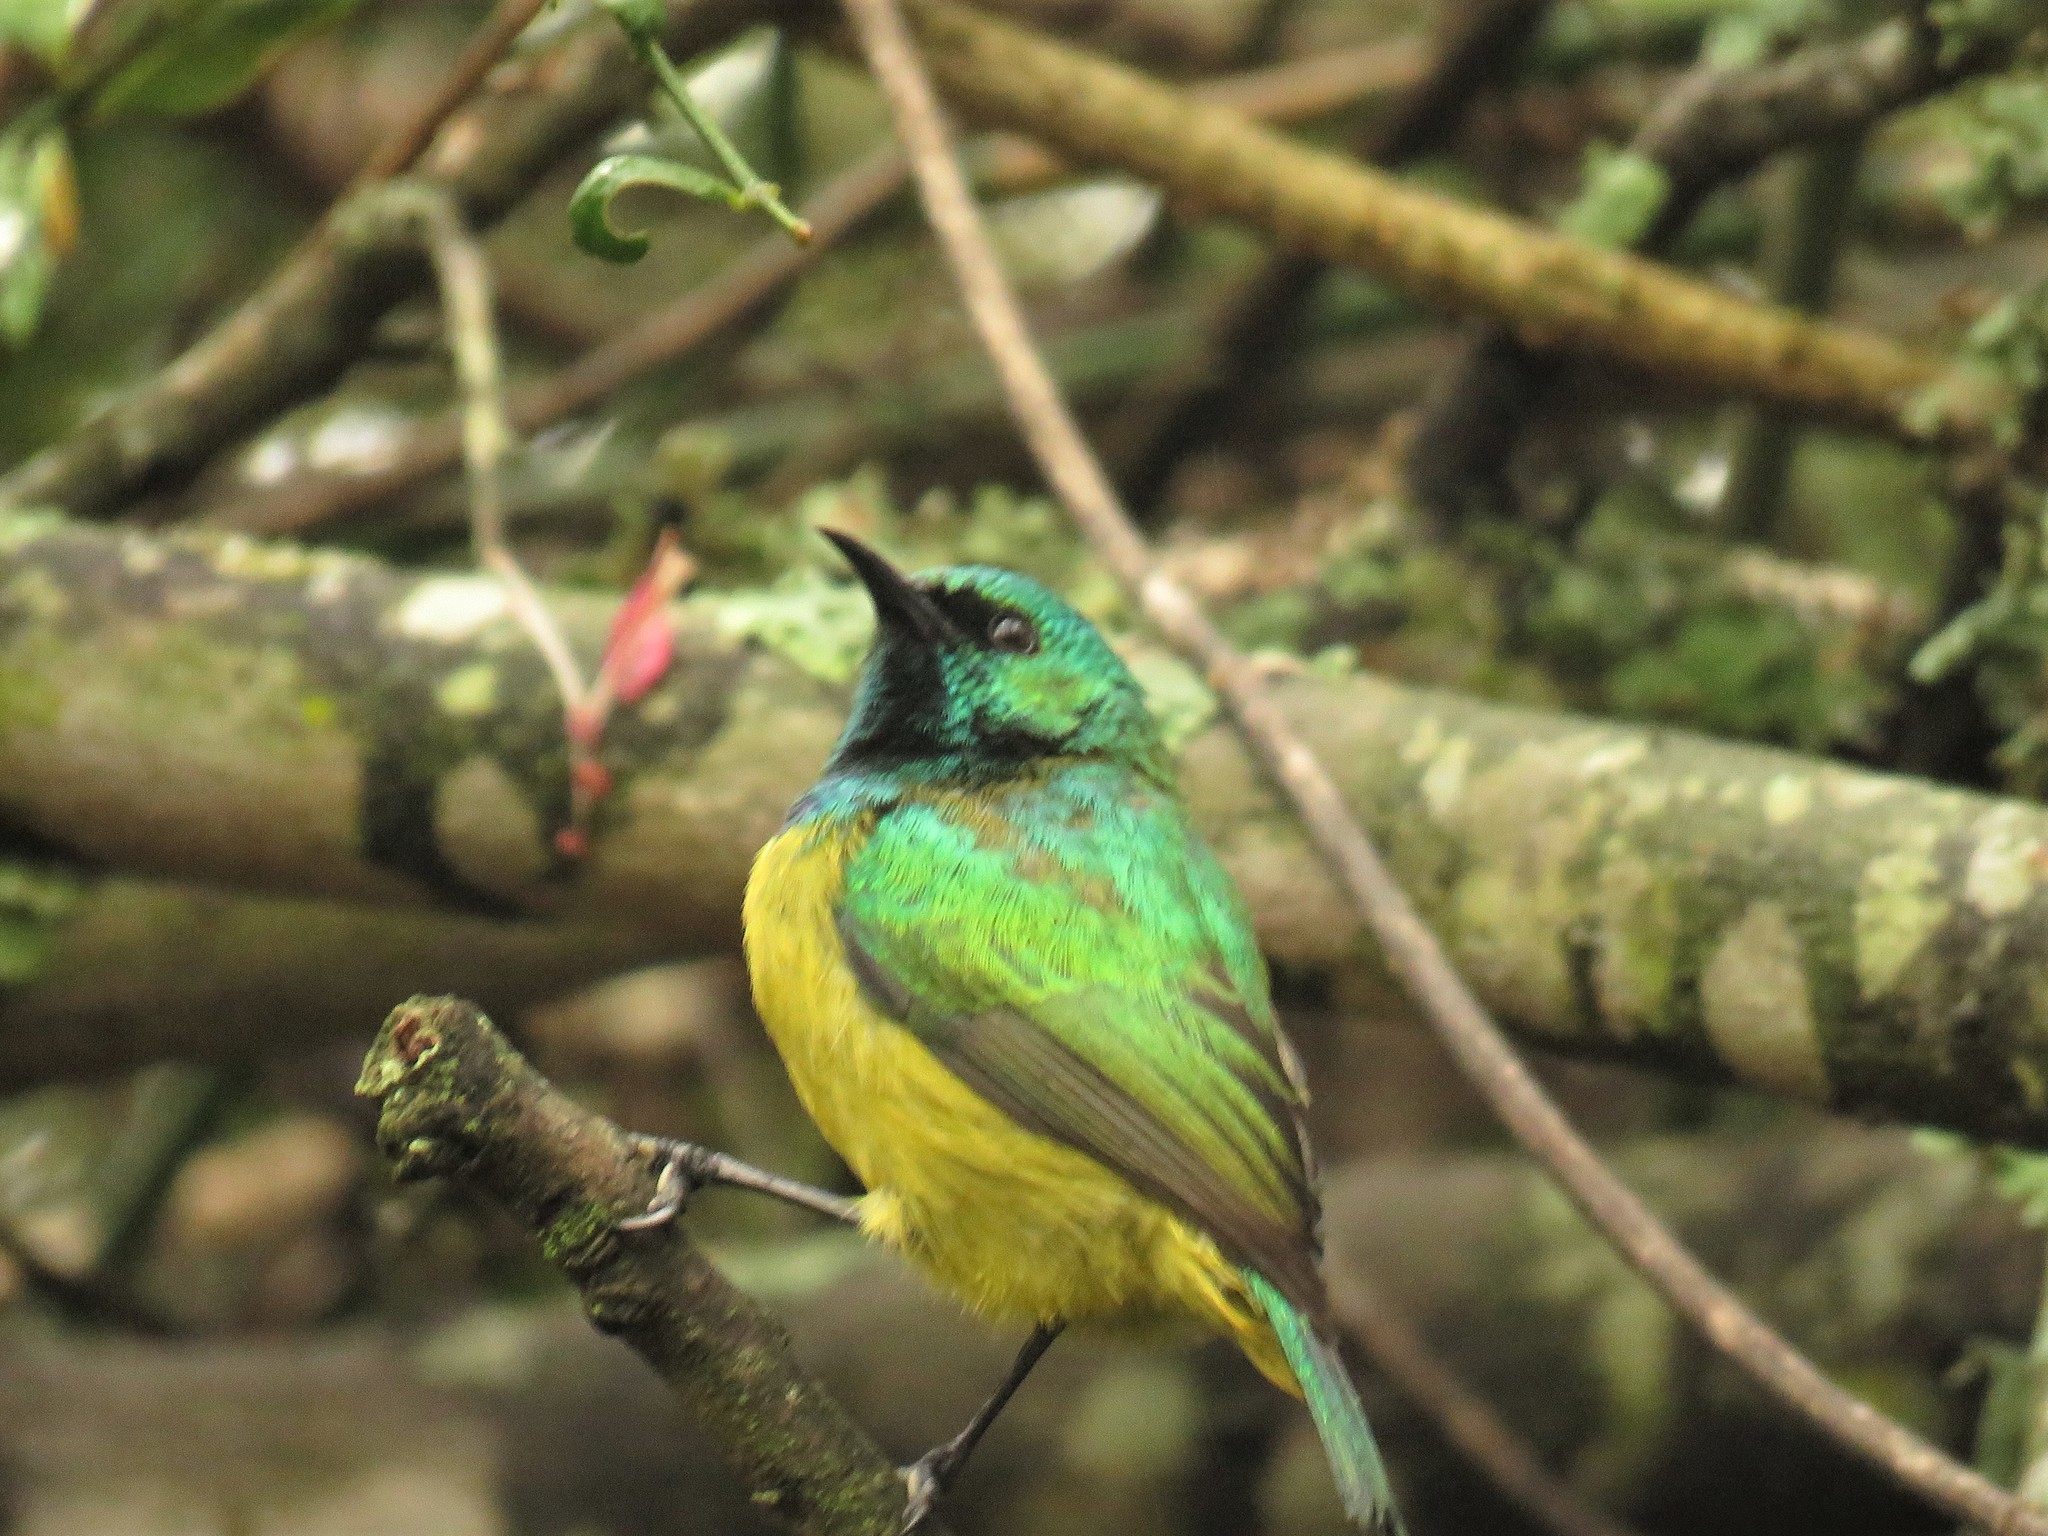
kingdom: Animalia
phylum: Chordata
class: Aves
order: Passeriformes
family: Nectariniidae
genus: Hedydipna
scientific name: Hedydipna collaris
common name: Collared sunbird
